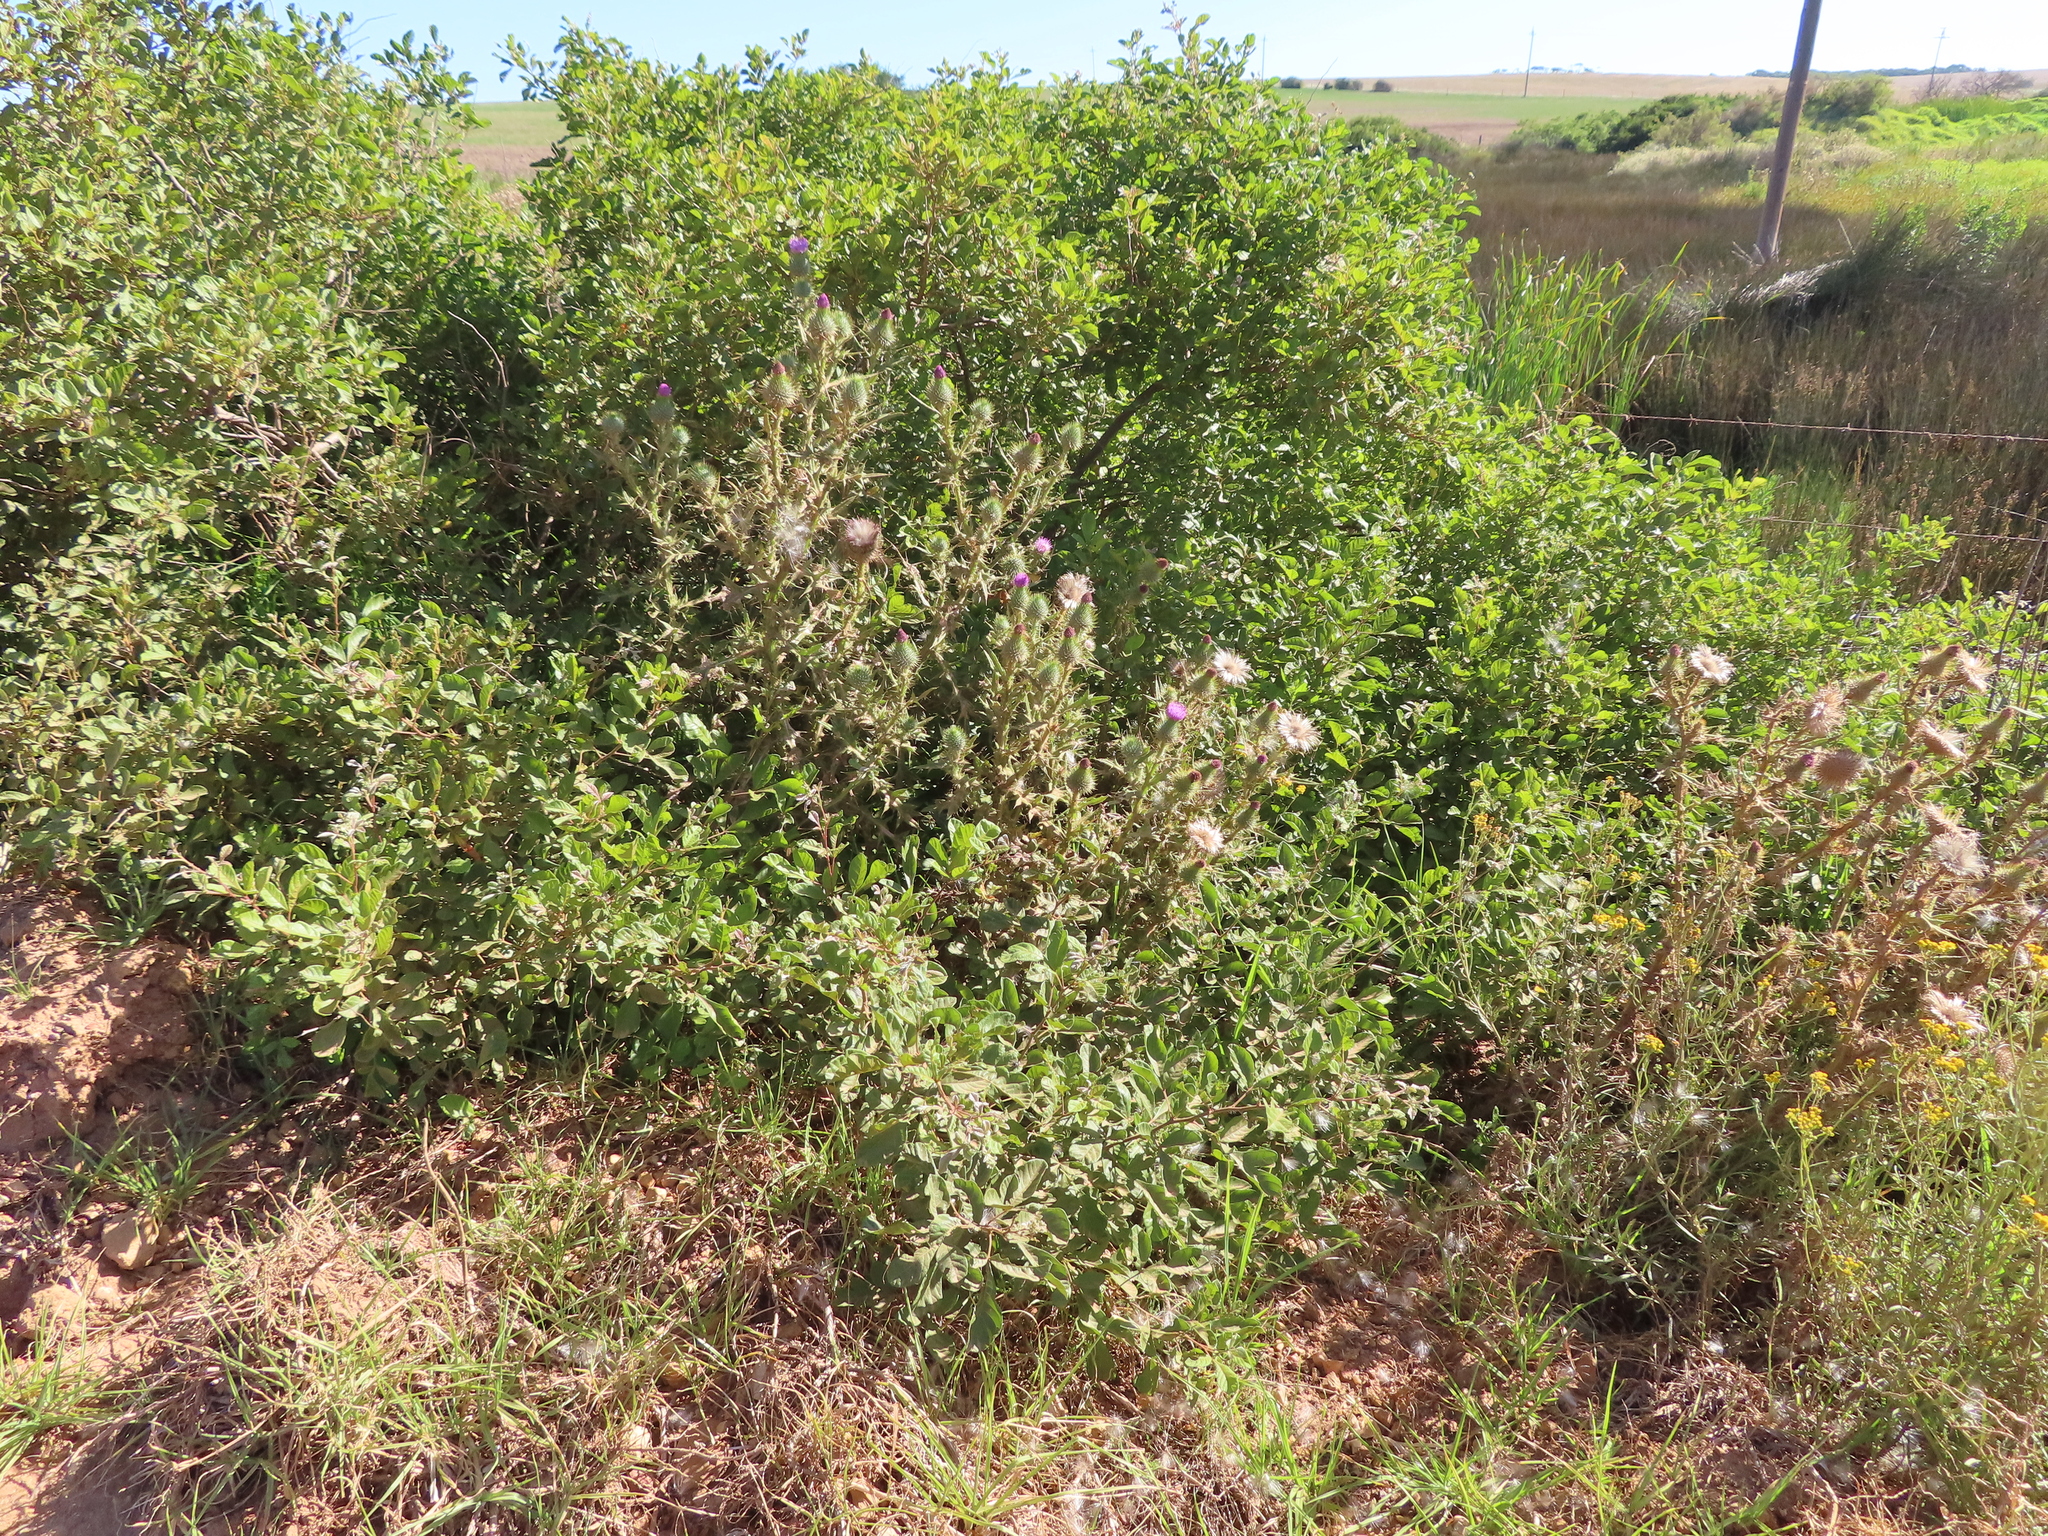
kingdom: Plantae
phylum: Tracheophyta
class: Magnoliopsida
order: Asterales
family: Asteraceae
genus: Cirsium
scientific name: Cirsium vulgare
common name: Bull thistle
